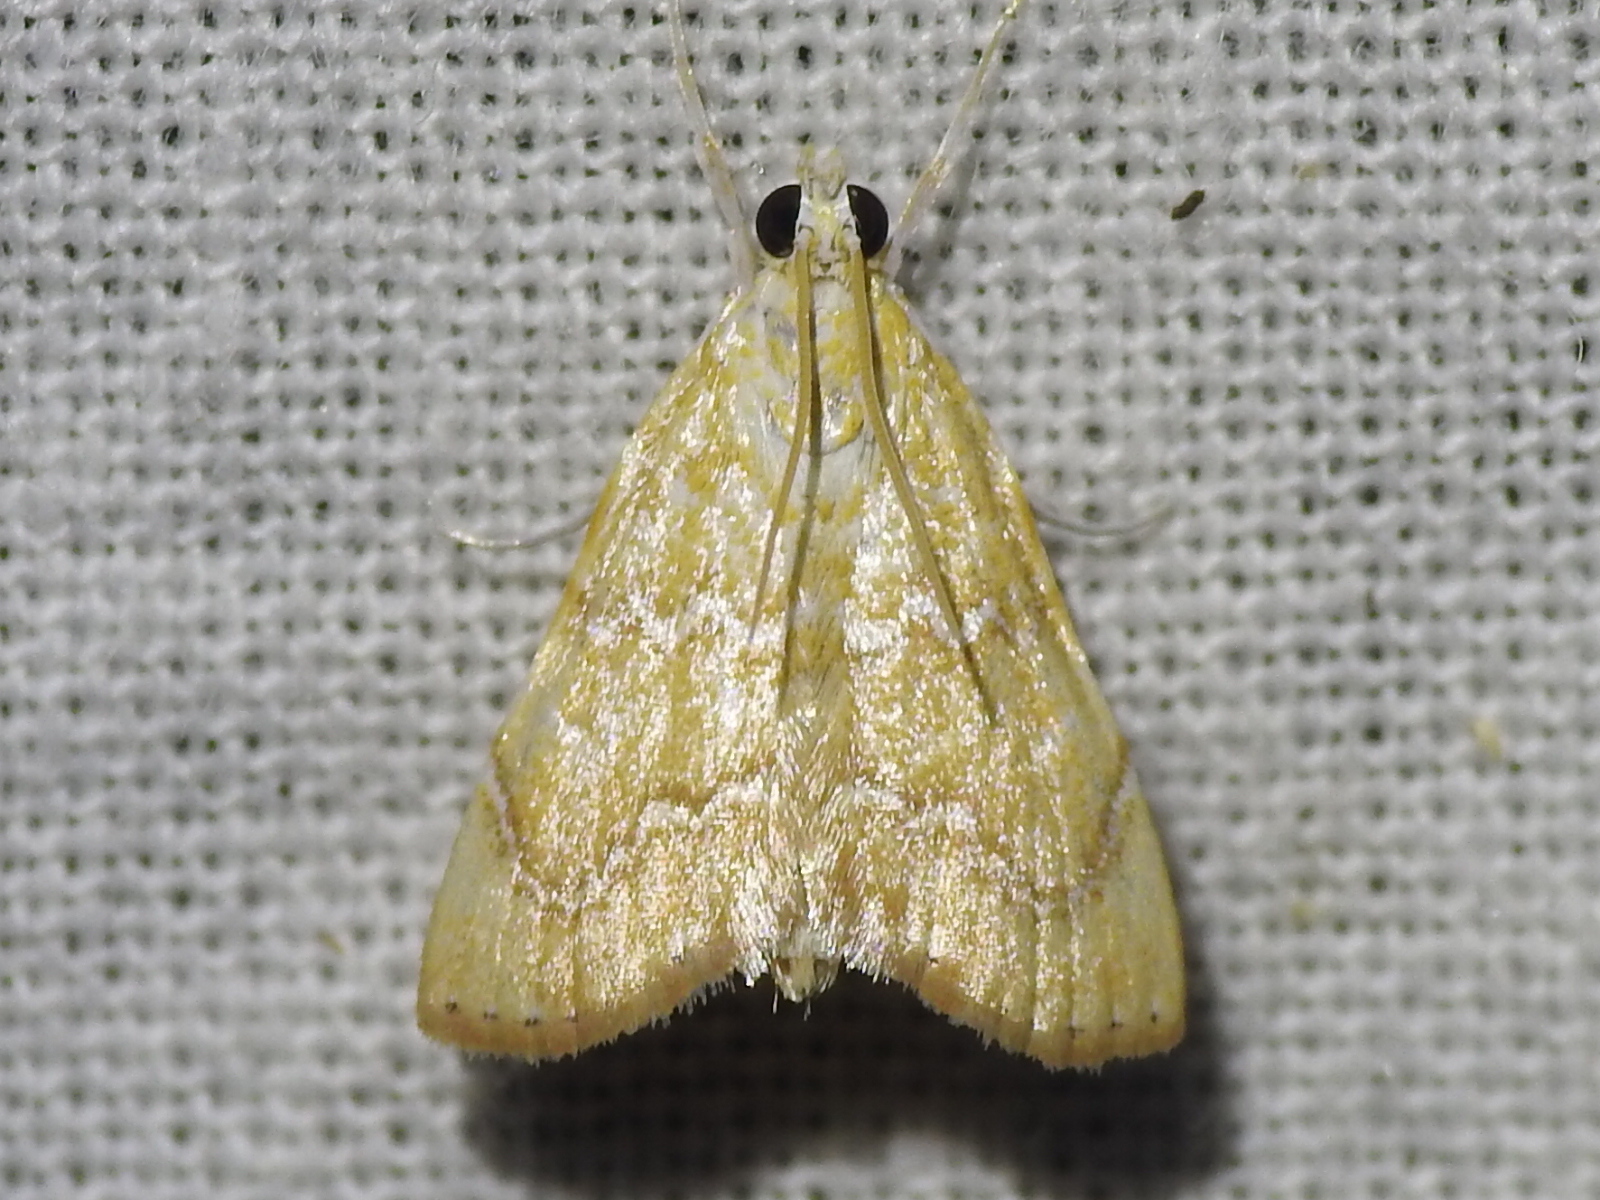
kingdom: Animalia
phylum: Arthropoda
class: Insecta
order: Lepidoptera
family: Crambidae
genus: Glaphyria
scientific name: Glaphyria sesquistrialis
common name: White-roped glaphyria
